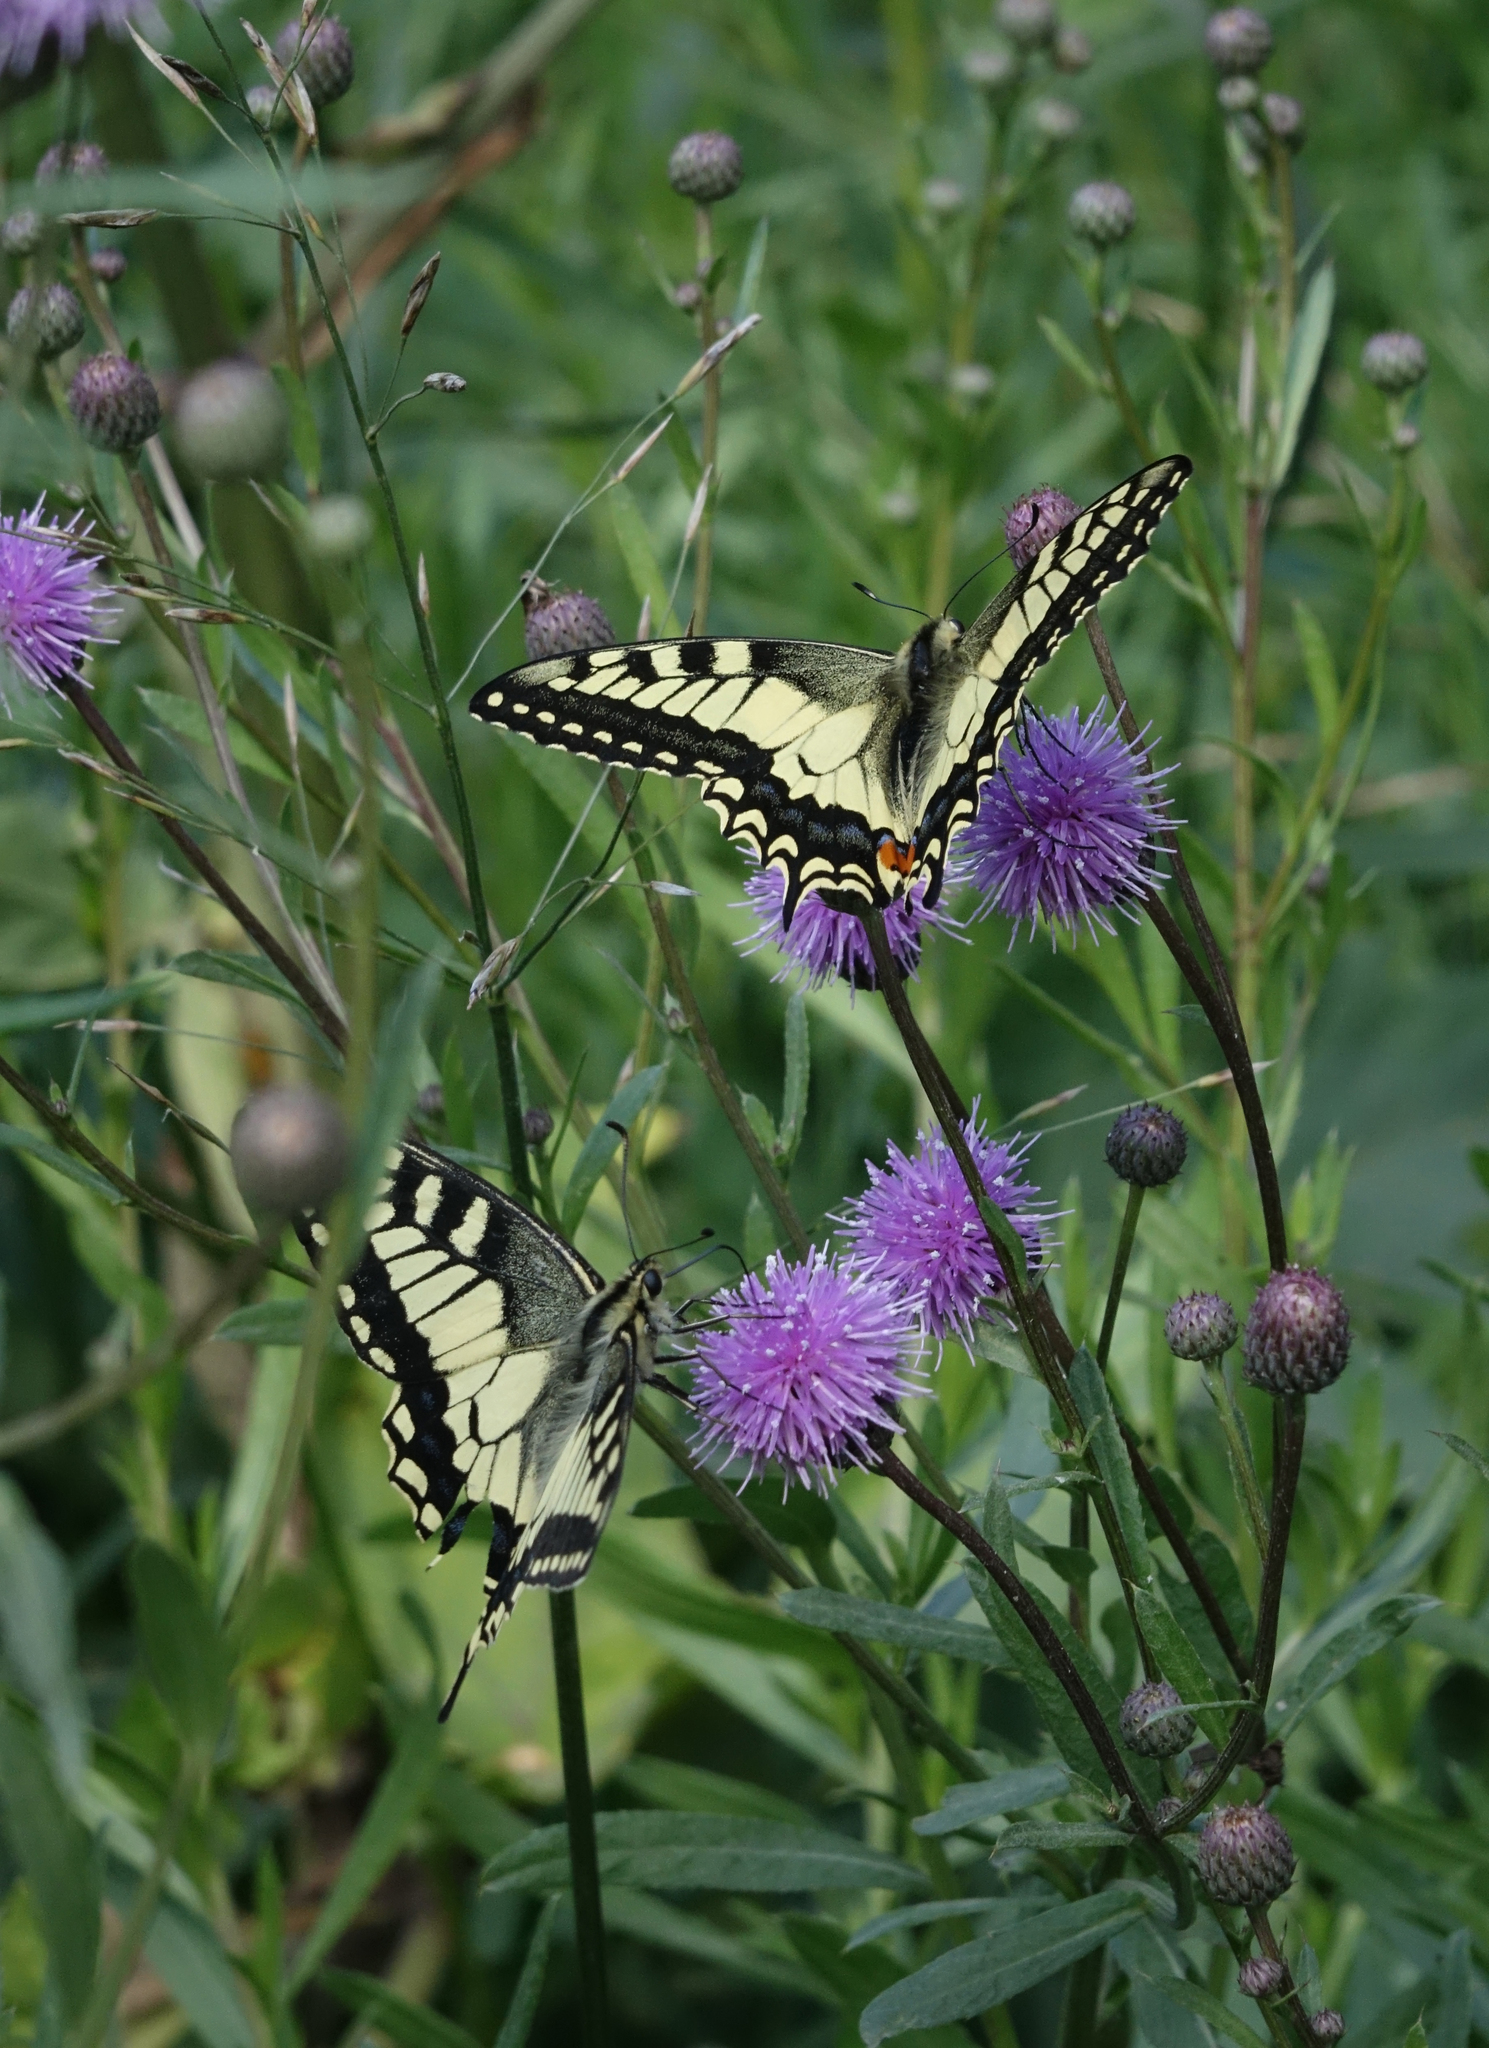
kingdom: Animalia
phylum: Arthropoda
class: Insecta
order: Lepidoptera
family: Papilionidae
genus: Papilio
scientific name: Papilio machaon
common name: Swallowtail
